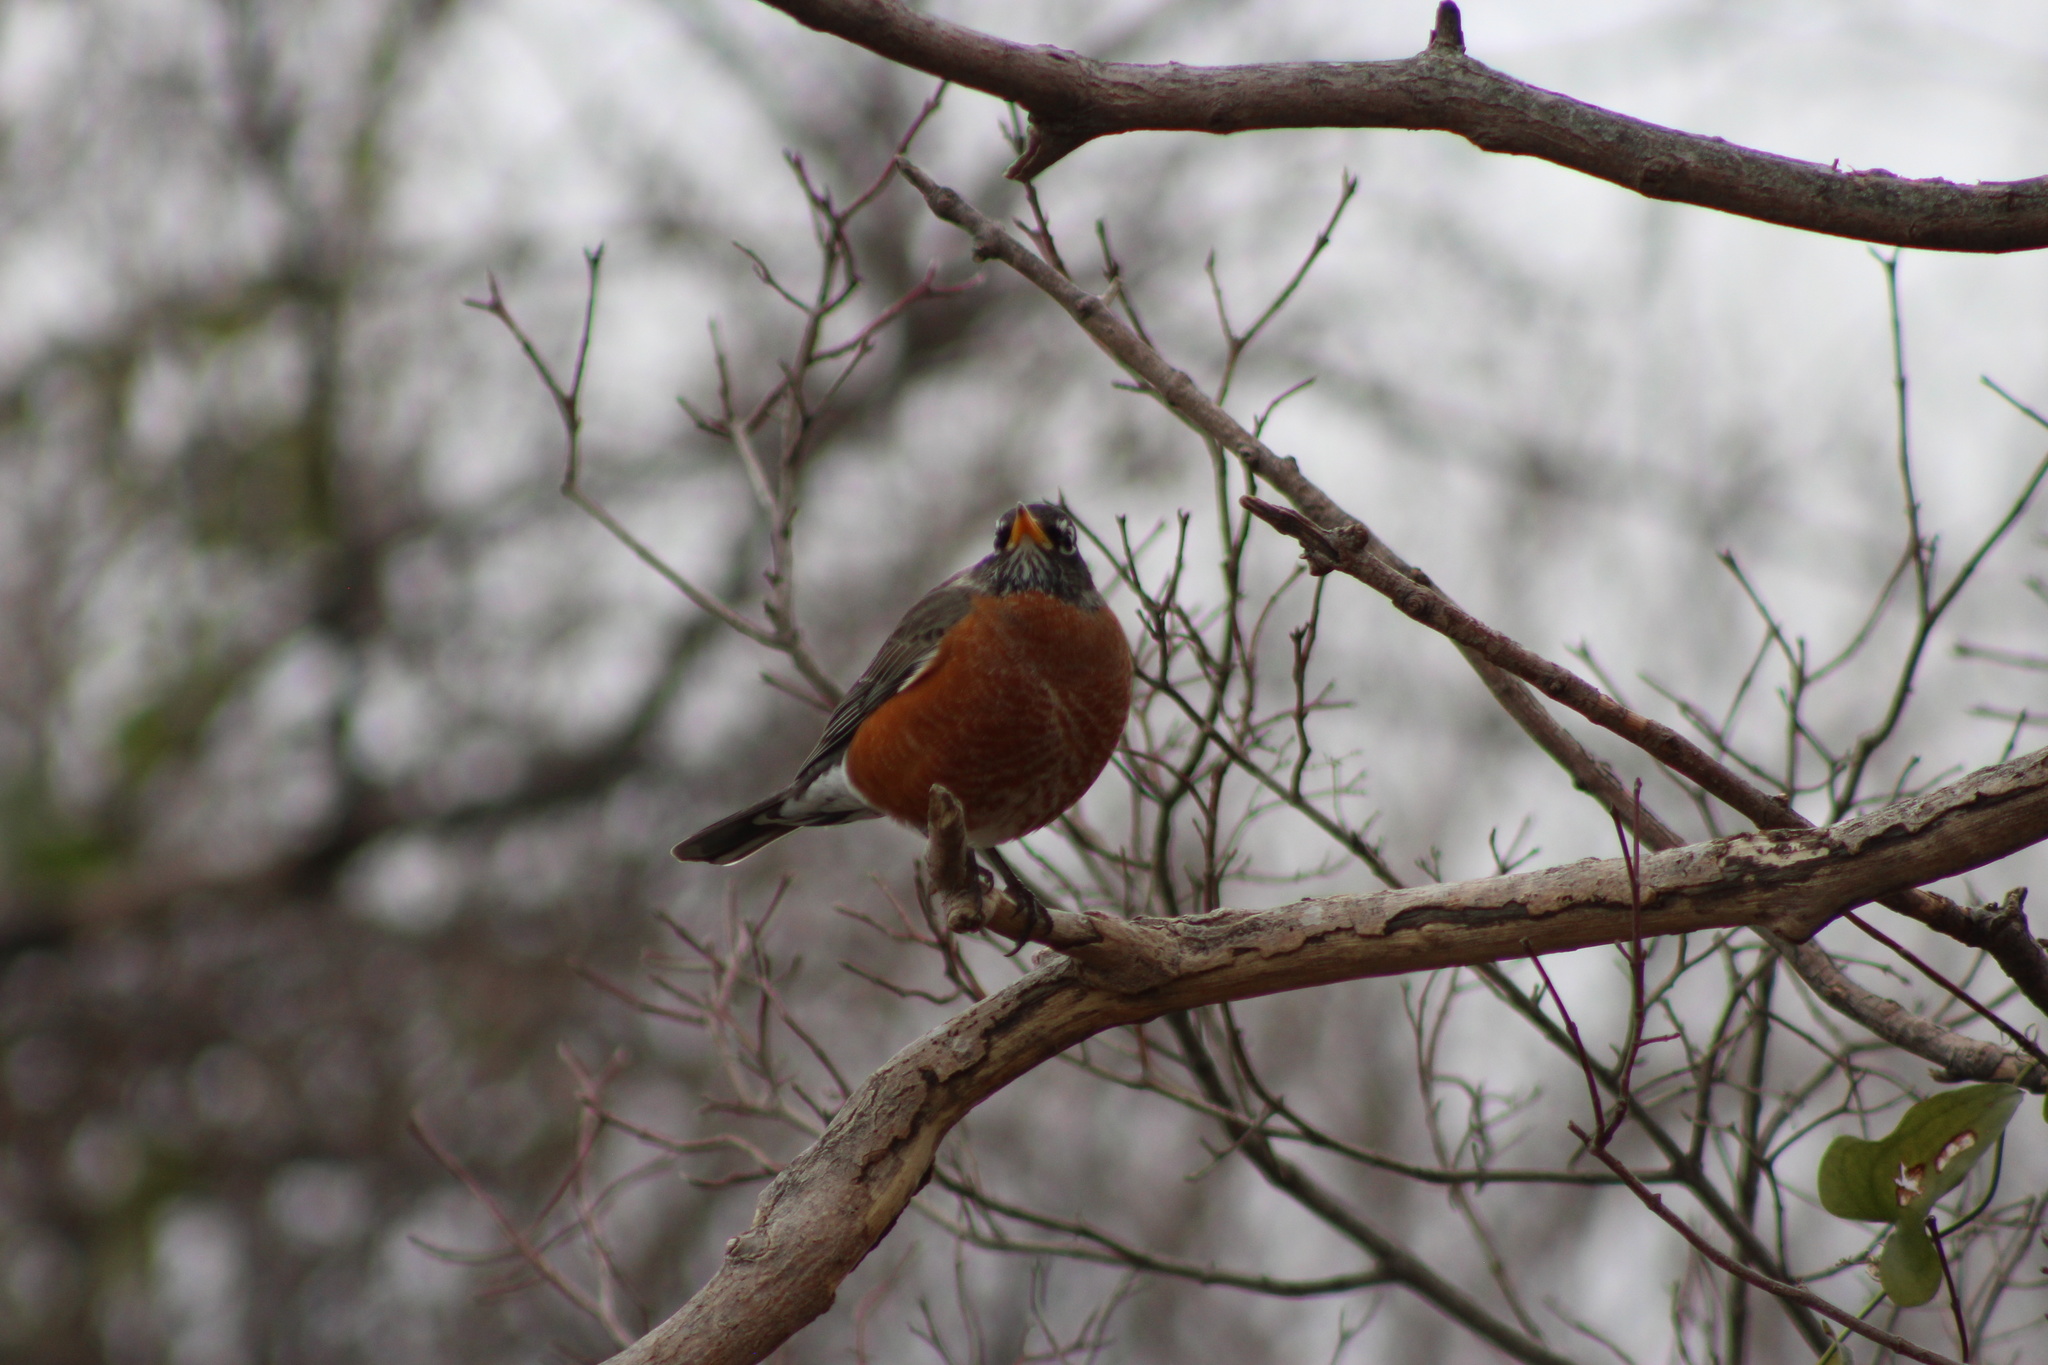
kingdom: Animalia
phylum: Chordata
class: Aves
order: Passeriformes
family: Turdidae
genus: Turdus
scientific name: Turdus migratorius
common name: American robin
